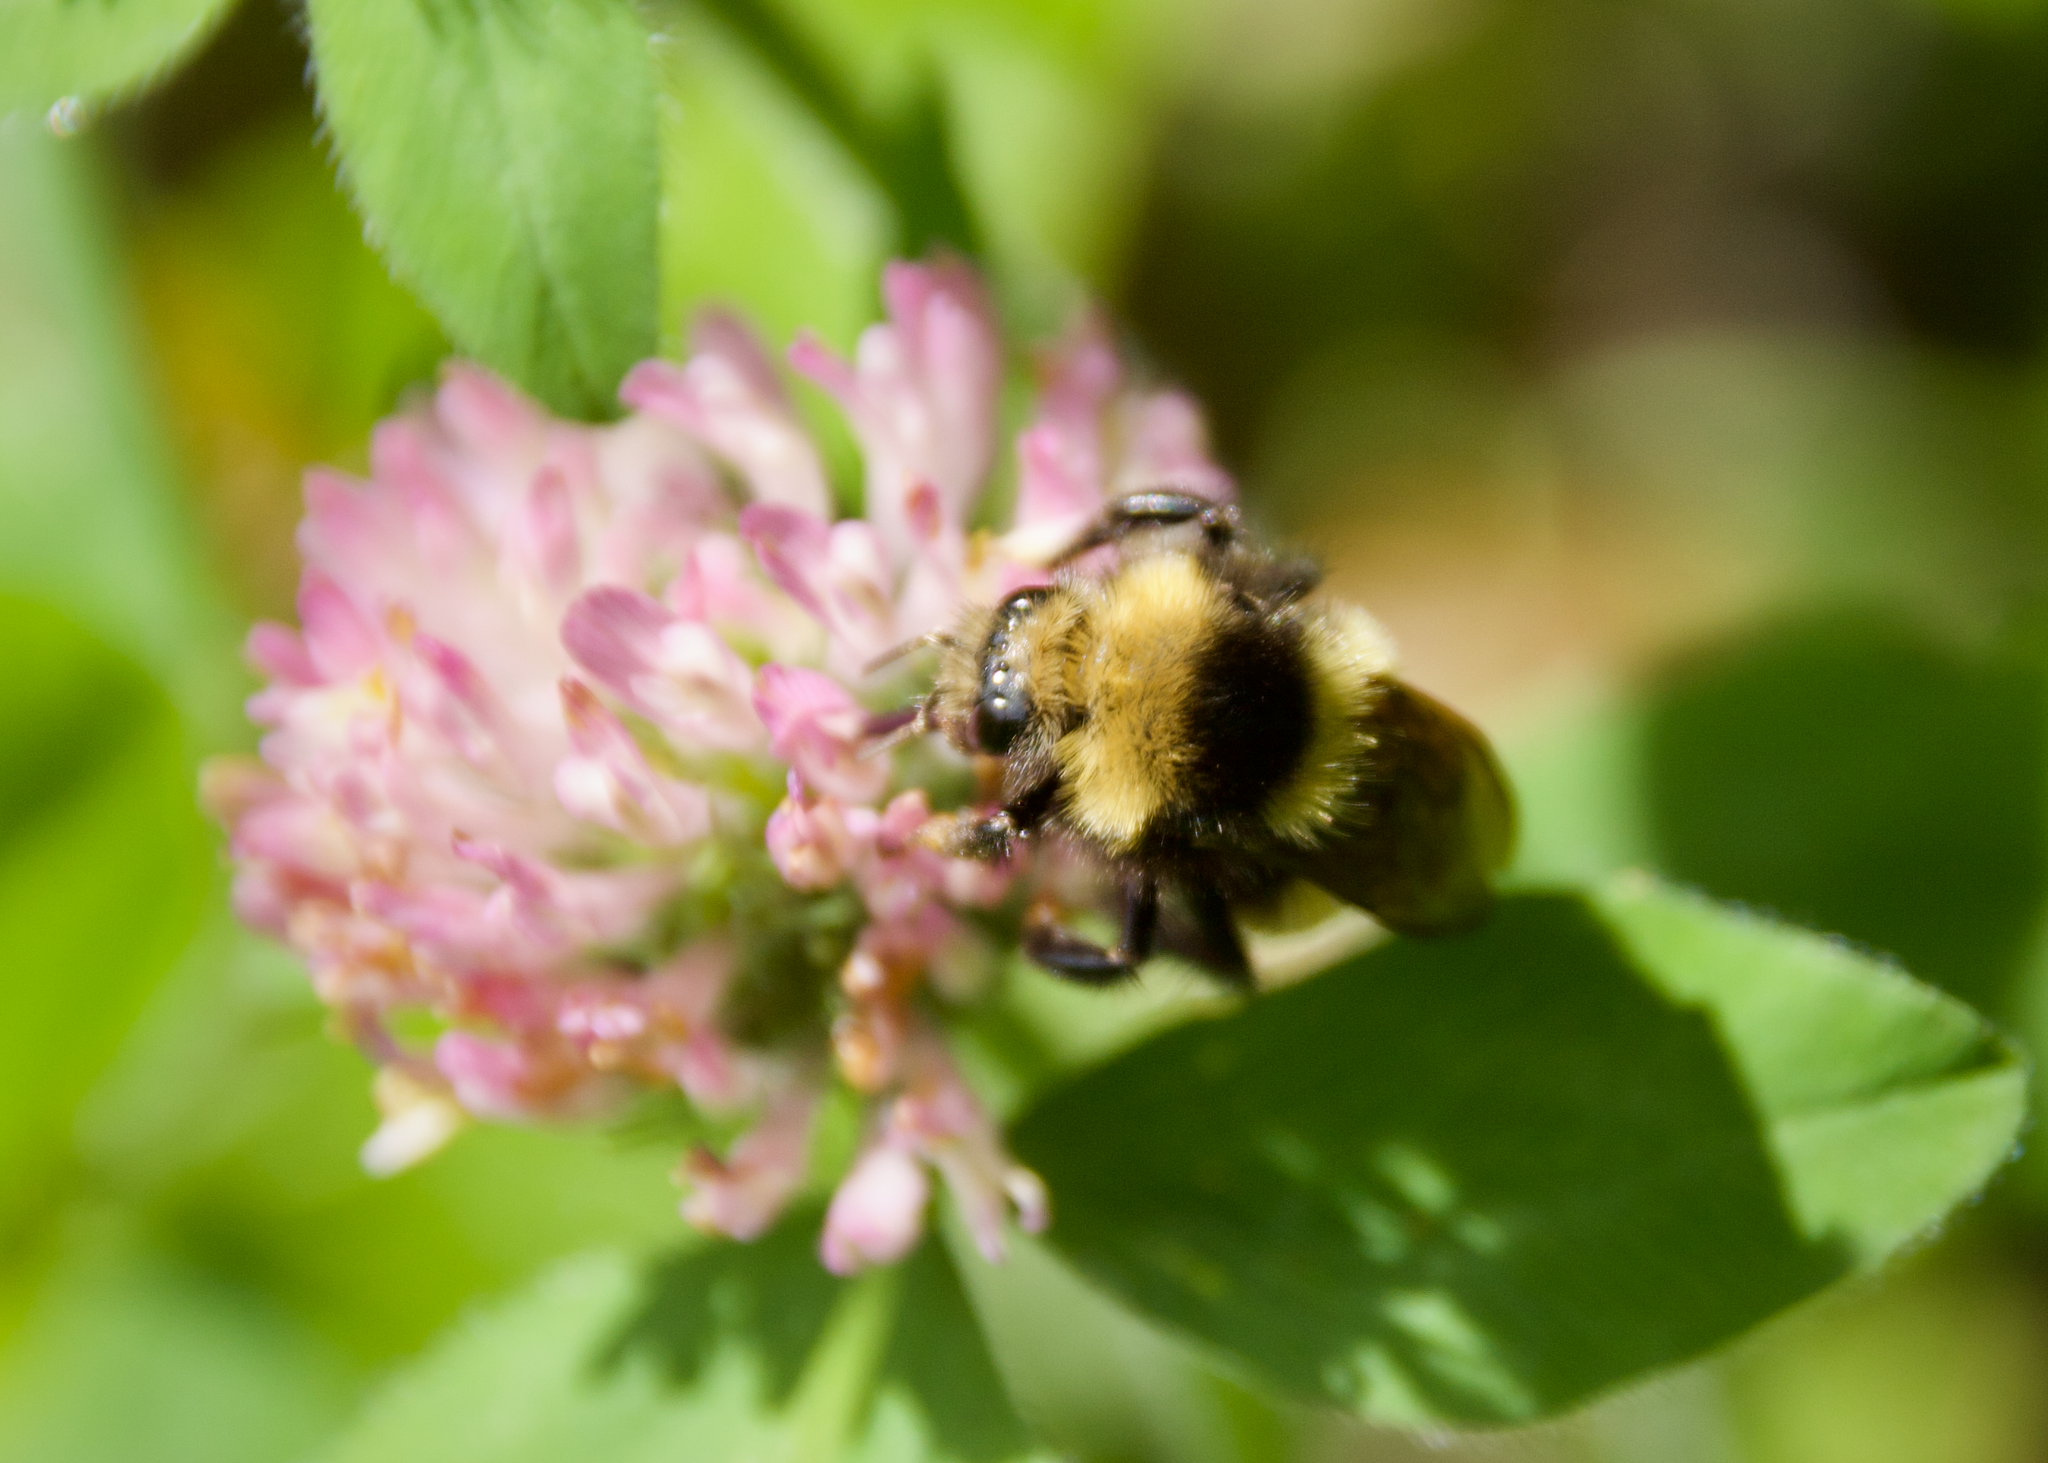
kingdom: Animalia
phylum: Arthropoda
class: Insecta
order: Hymenoptera
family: Apidae
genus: Bombus
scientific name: Bombus borealis
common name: Northern amber bumble bee
